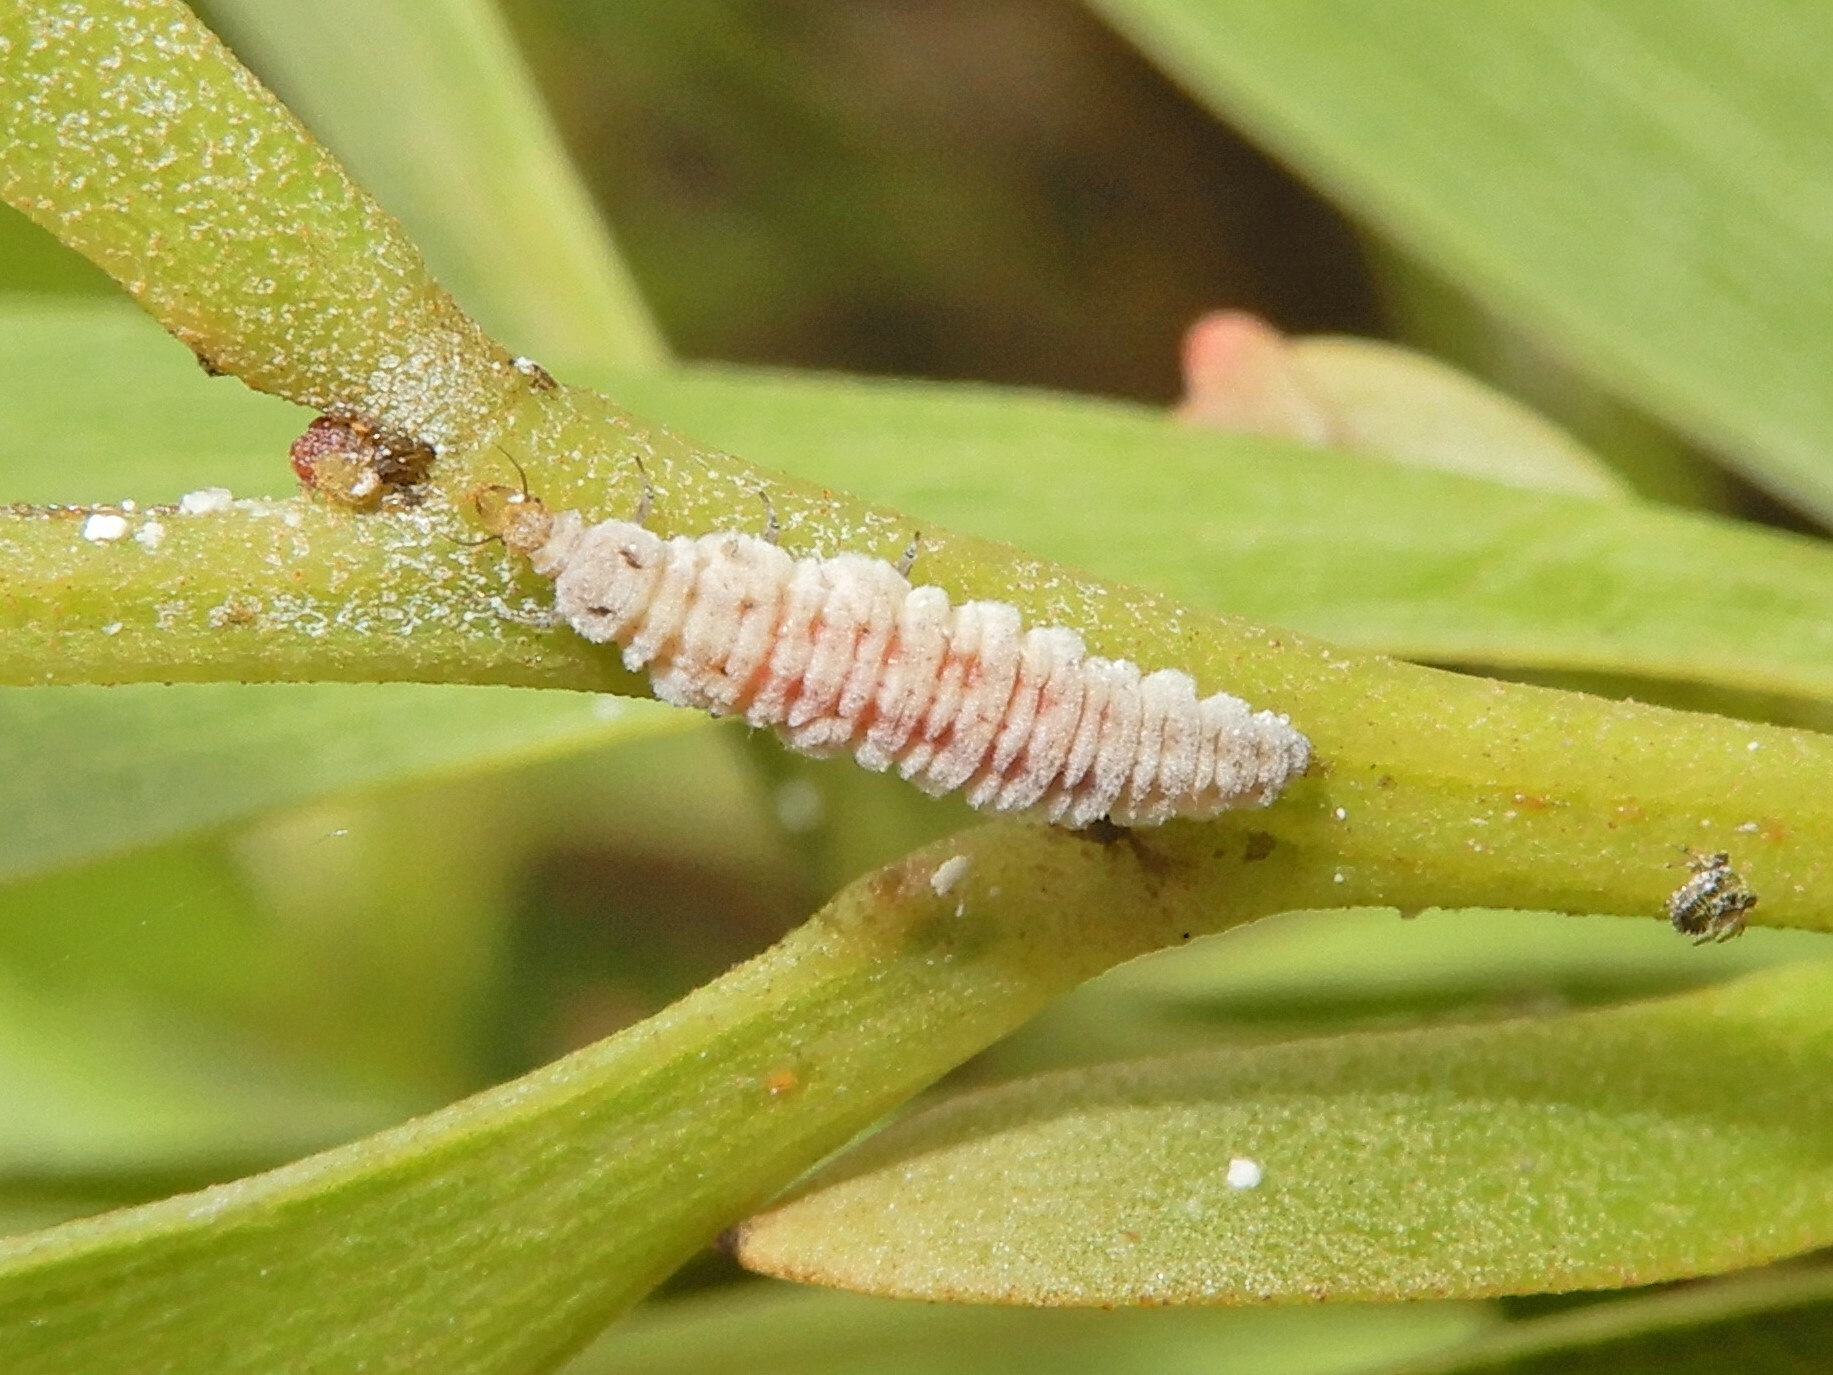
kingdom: Animalia
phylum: Arthropoda
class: Insecta
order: Neuroptera
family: Hemerobiidae
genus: Drepanacra
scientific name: Drepanacra binocula
